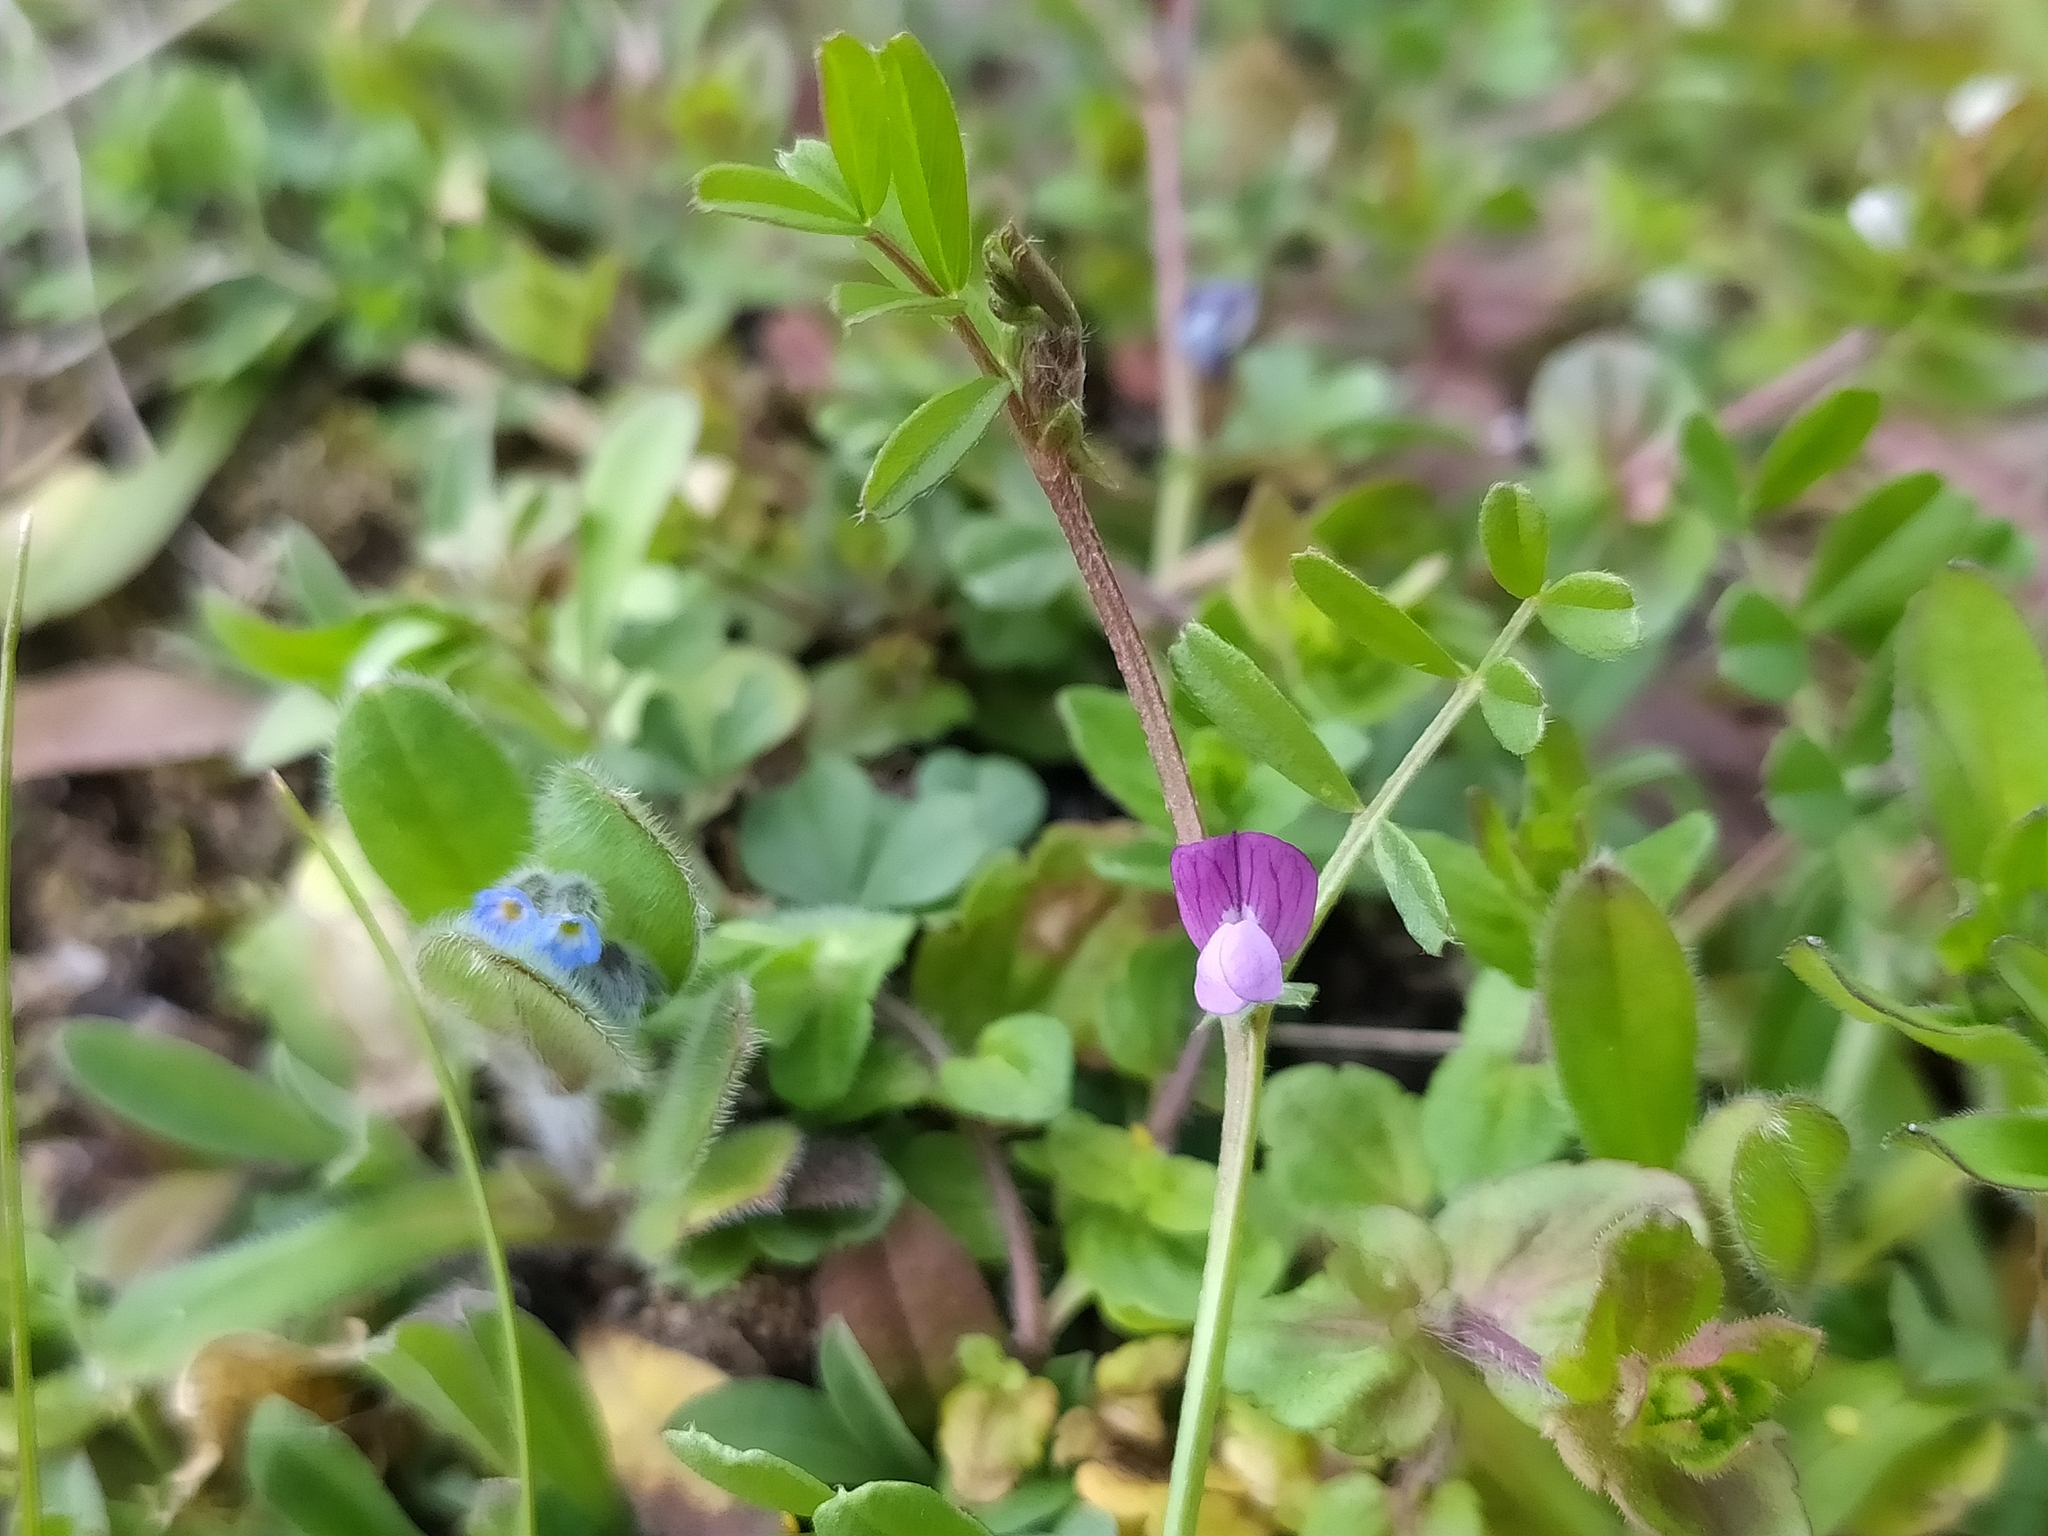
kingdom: Plantae
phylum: Tracheophyta
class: Magnoliopsida
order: Fabales
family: Fabaceae
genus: Vicia
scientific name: Vicia lathyroides
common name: Spring vetch
